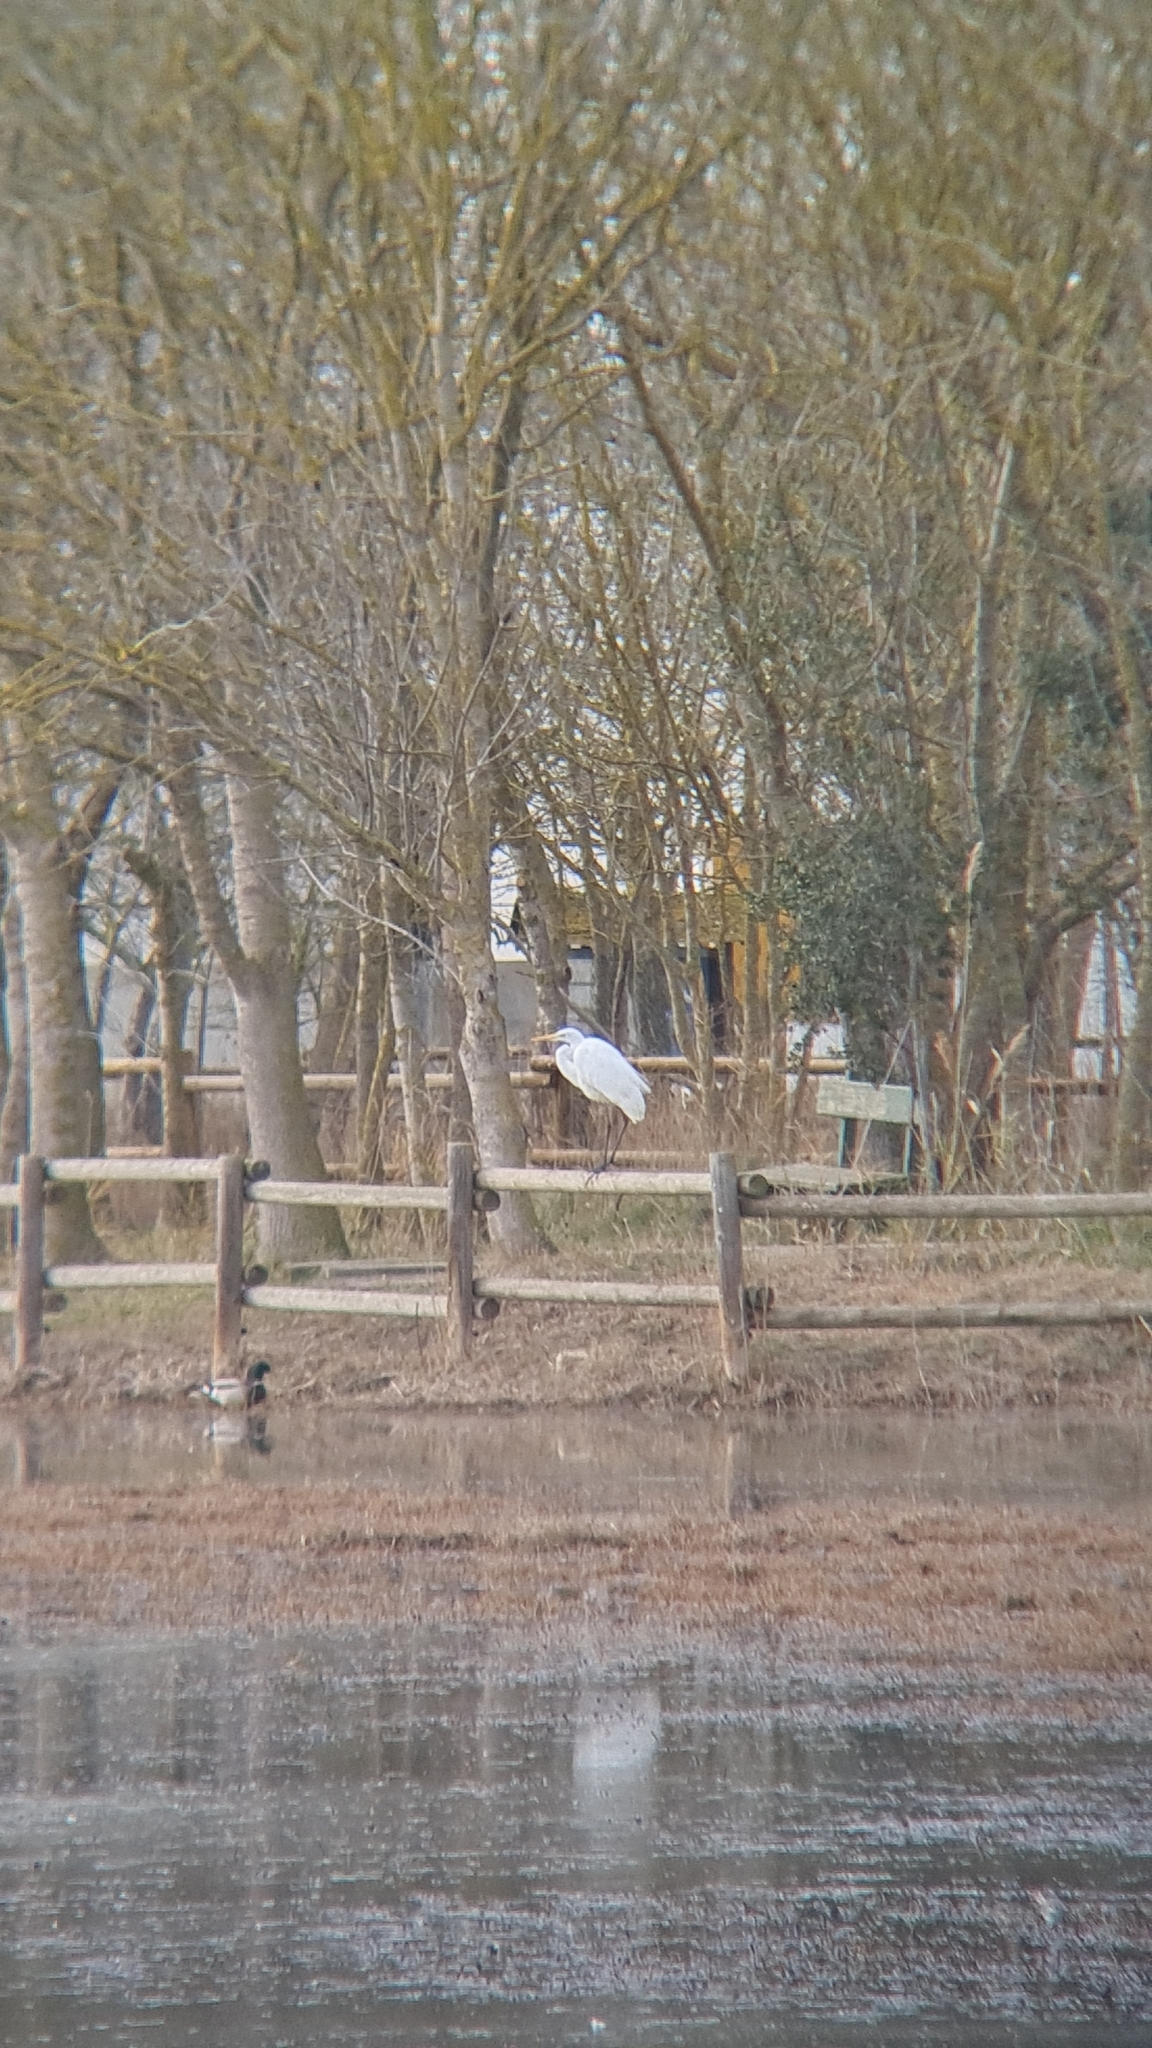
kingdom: Animalia
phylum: Chordata
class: Aves
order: Pelecaniformes
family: Ardeidae
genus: Ardea
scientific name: Ardea alba
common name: Great egret
